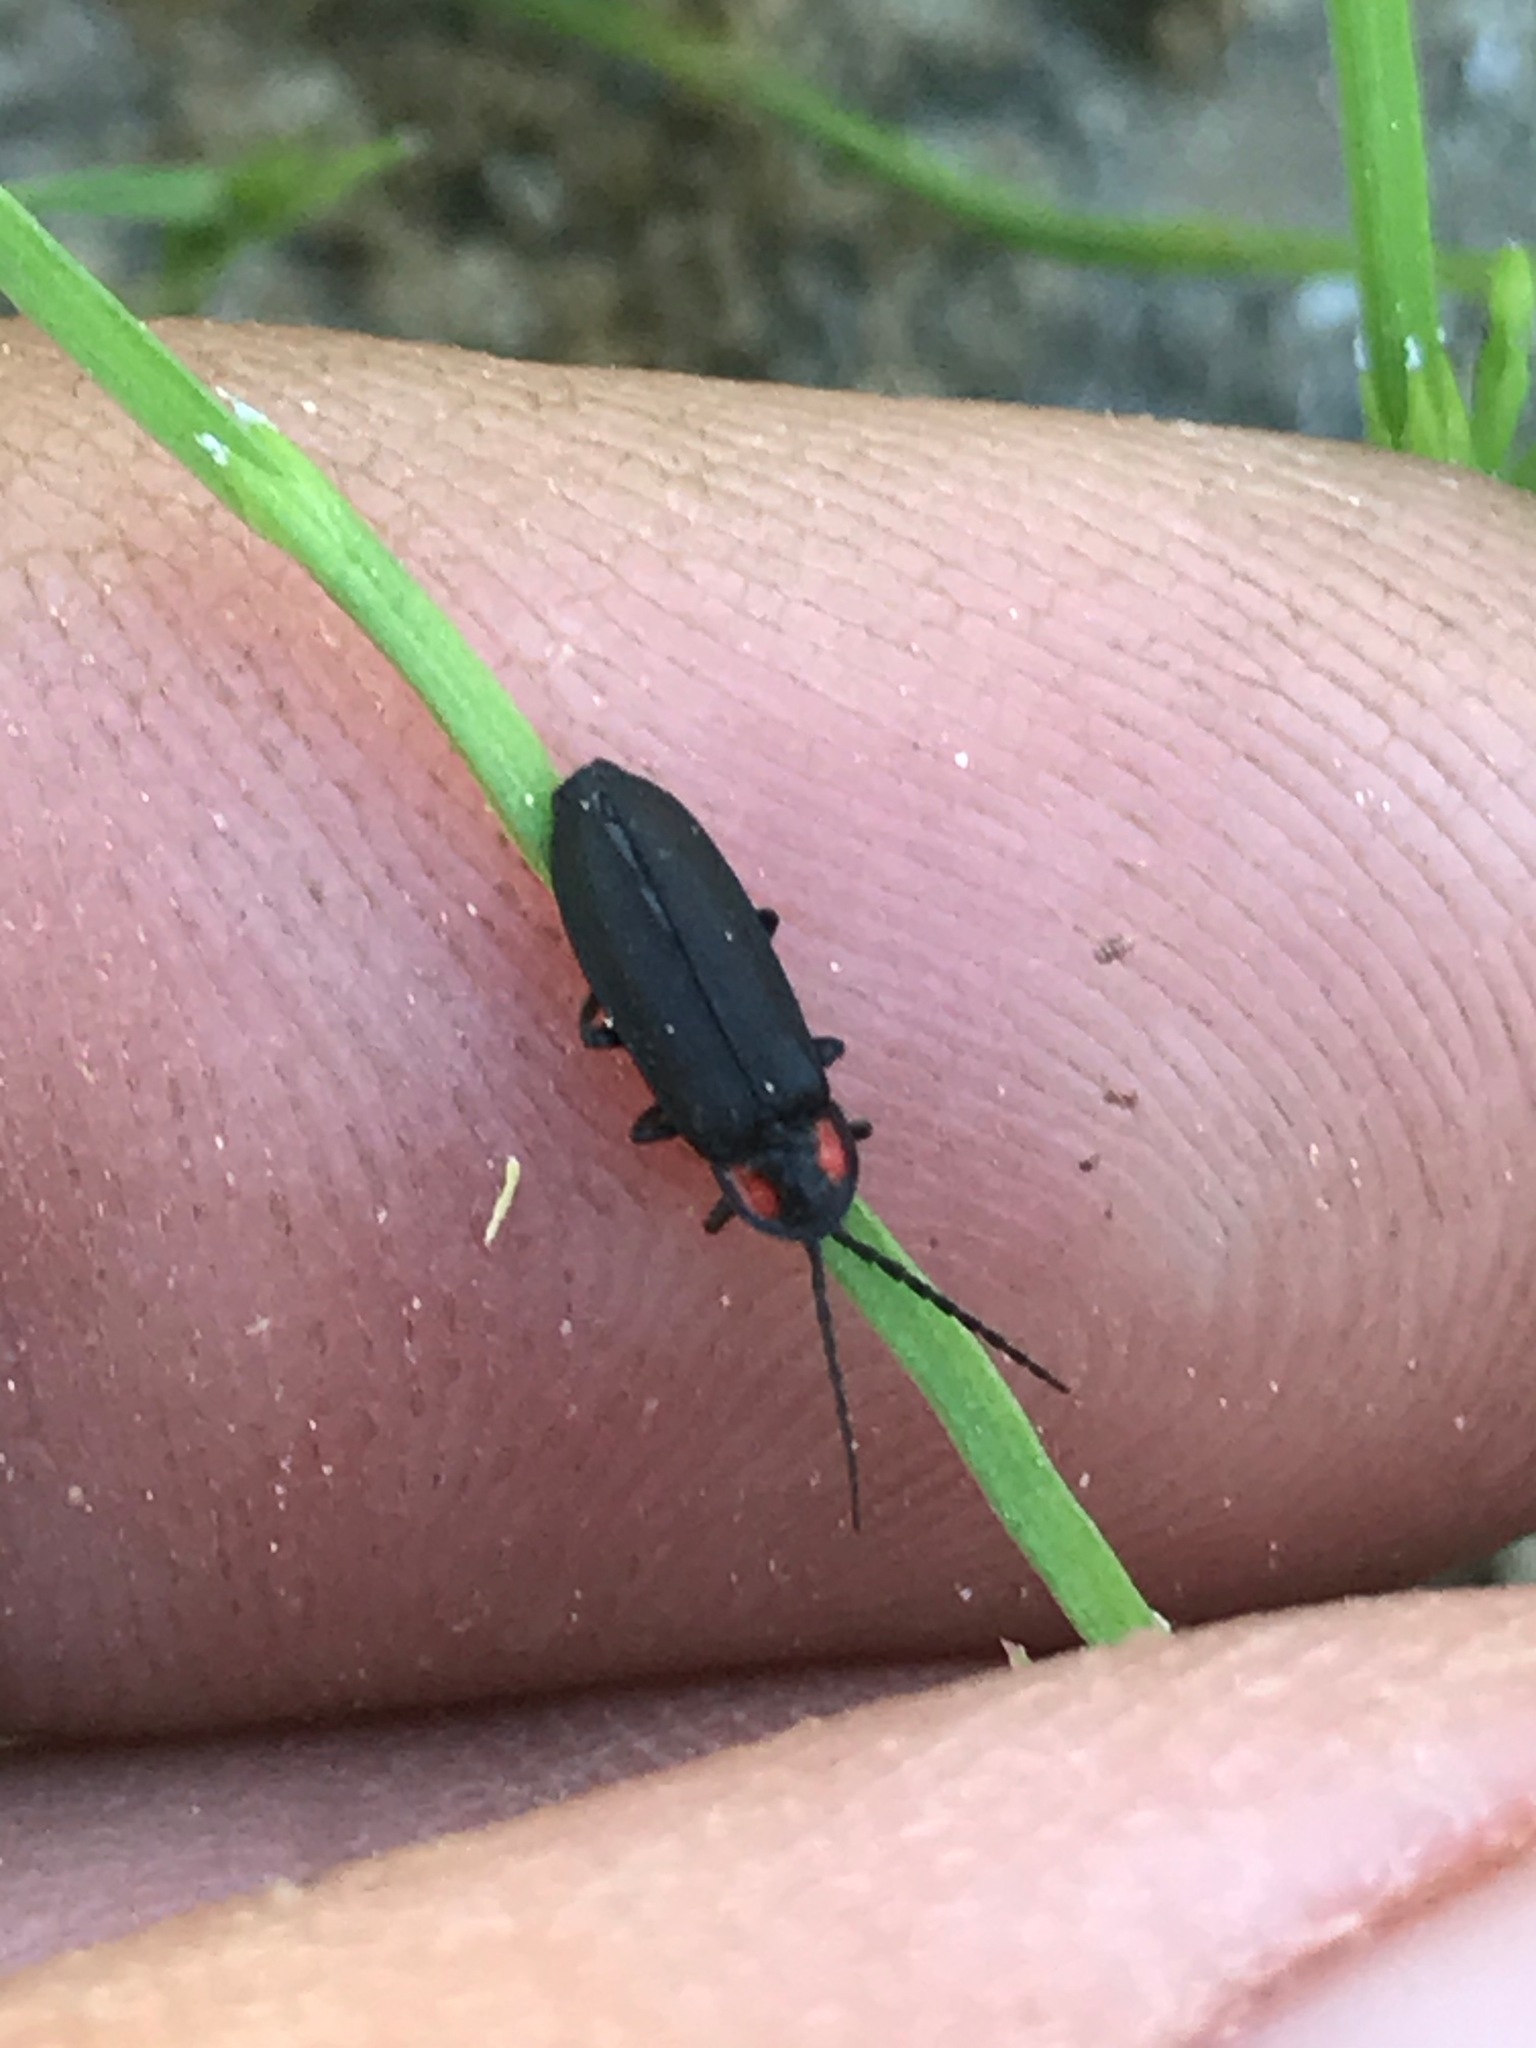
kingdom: Animalia
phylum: Arthropoda
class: Insecta
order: Coleoptera
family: Lampyridae
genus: Pyropyga
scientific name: Pyropyga nigricans
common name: Dark firefly
